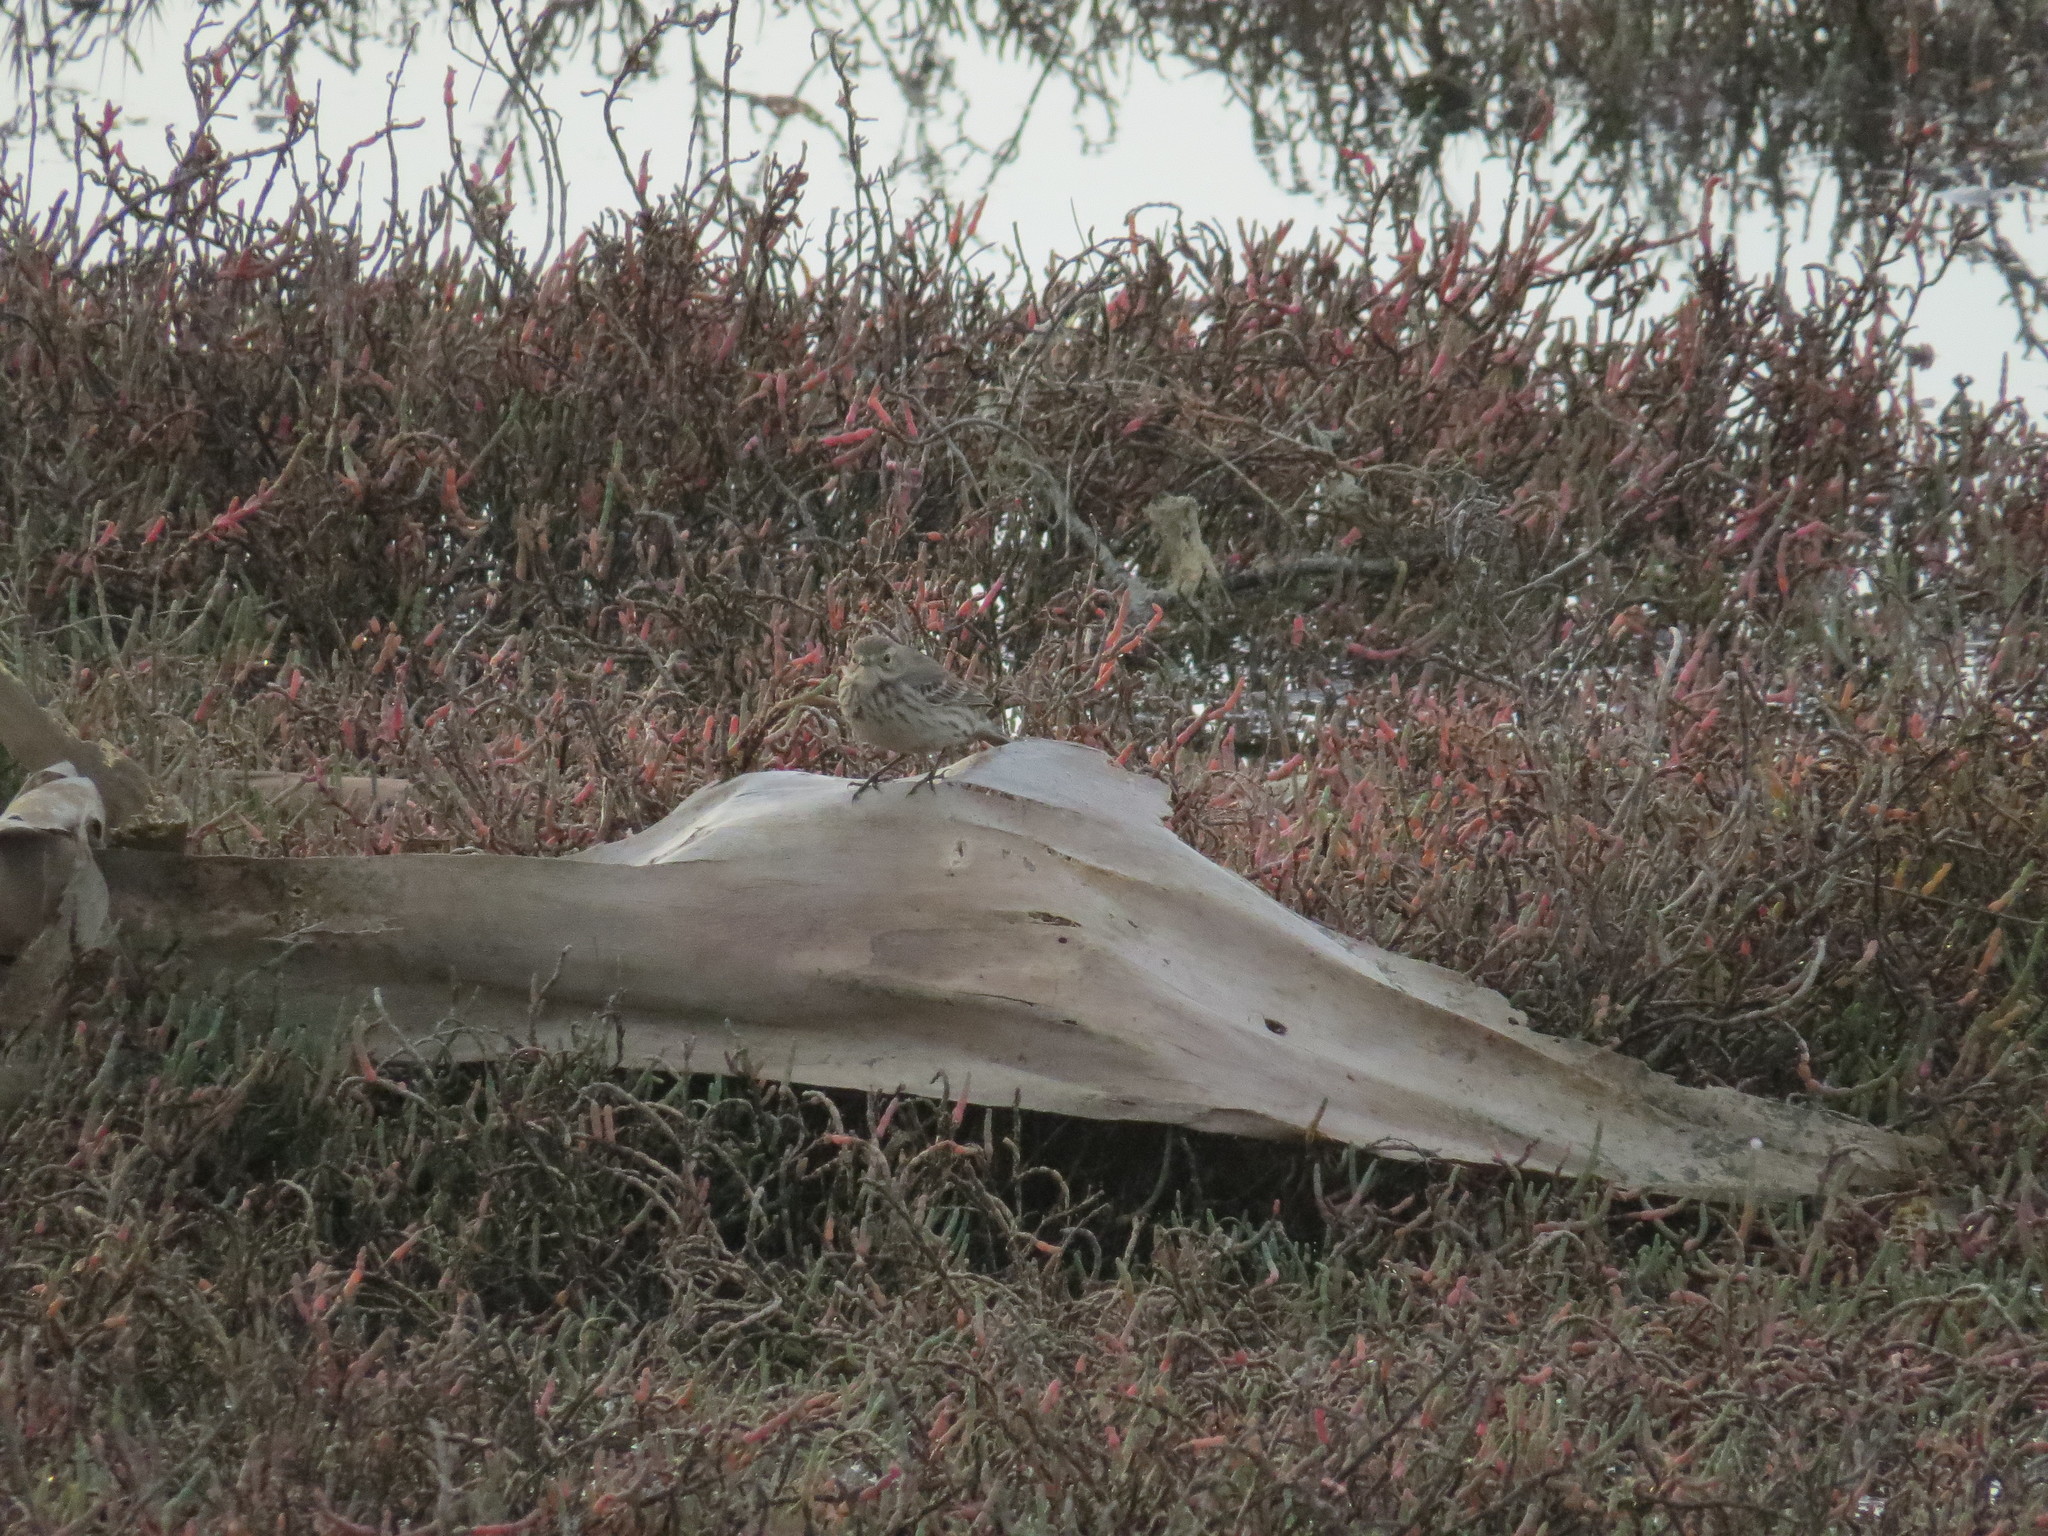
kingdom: Animalia
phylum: Chordata
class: Aves
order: Passeriformes
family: Motacillidae
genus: Anthus
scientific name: Anthus rubescens
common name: Buff-bellied pipit
